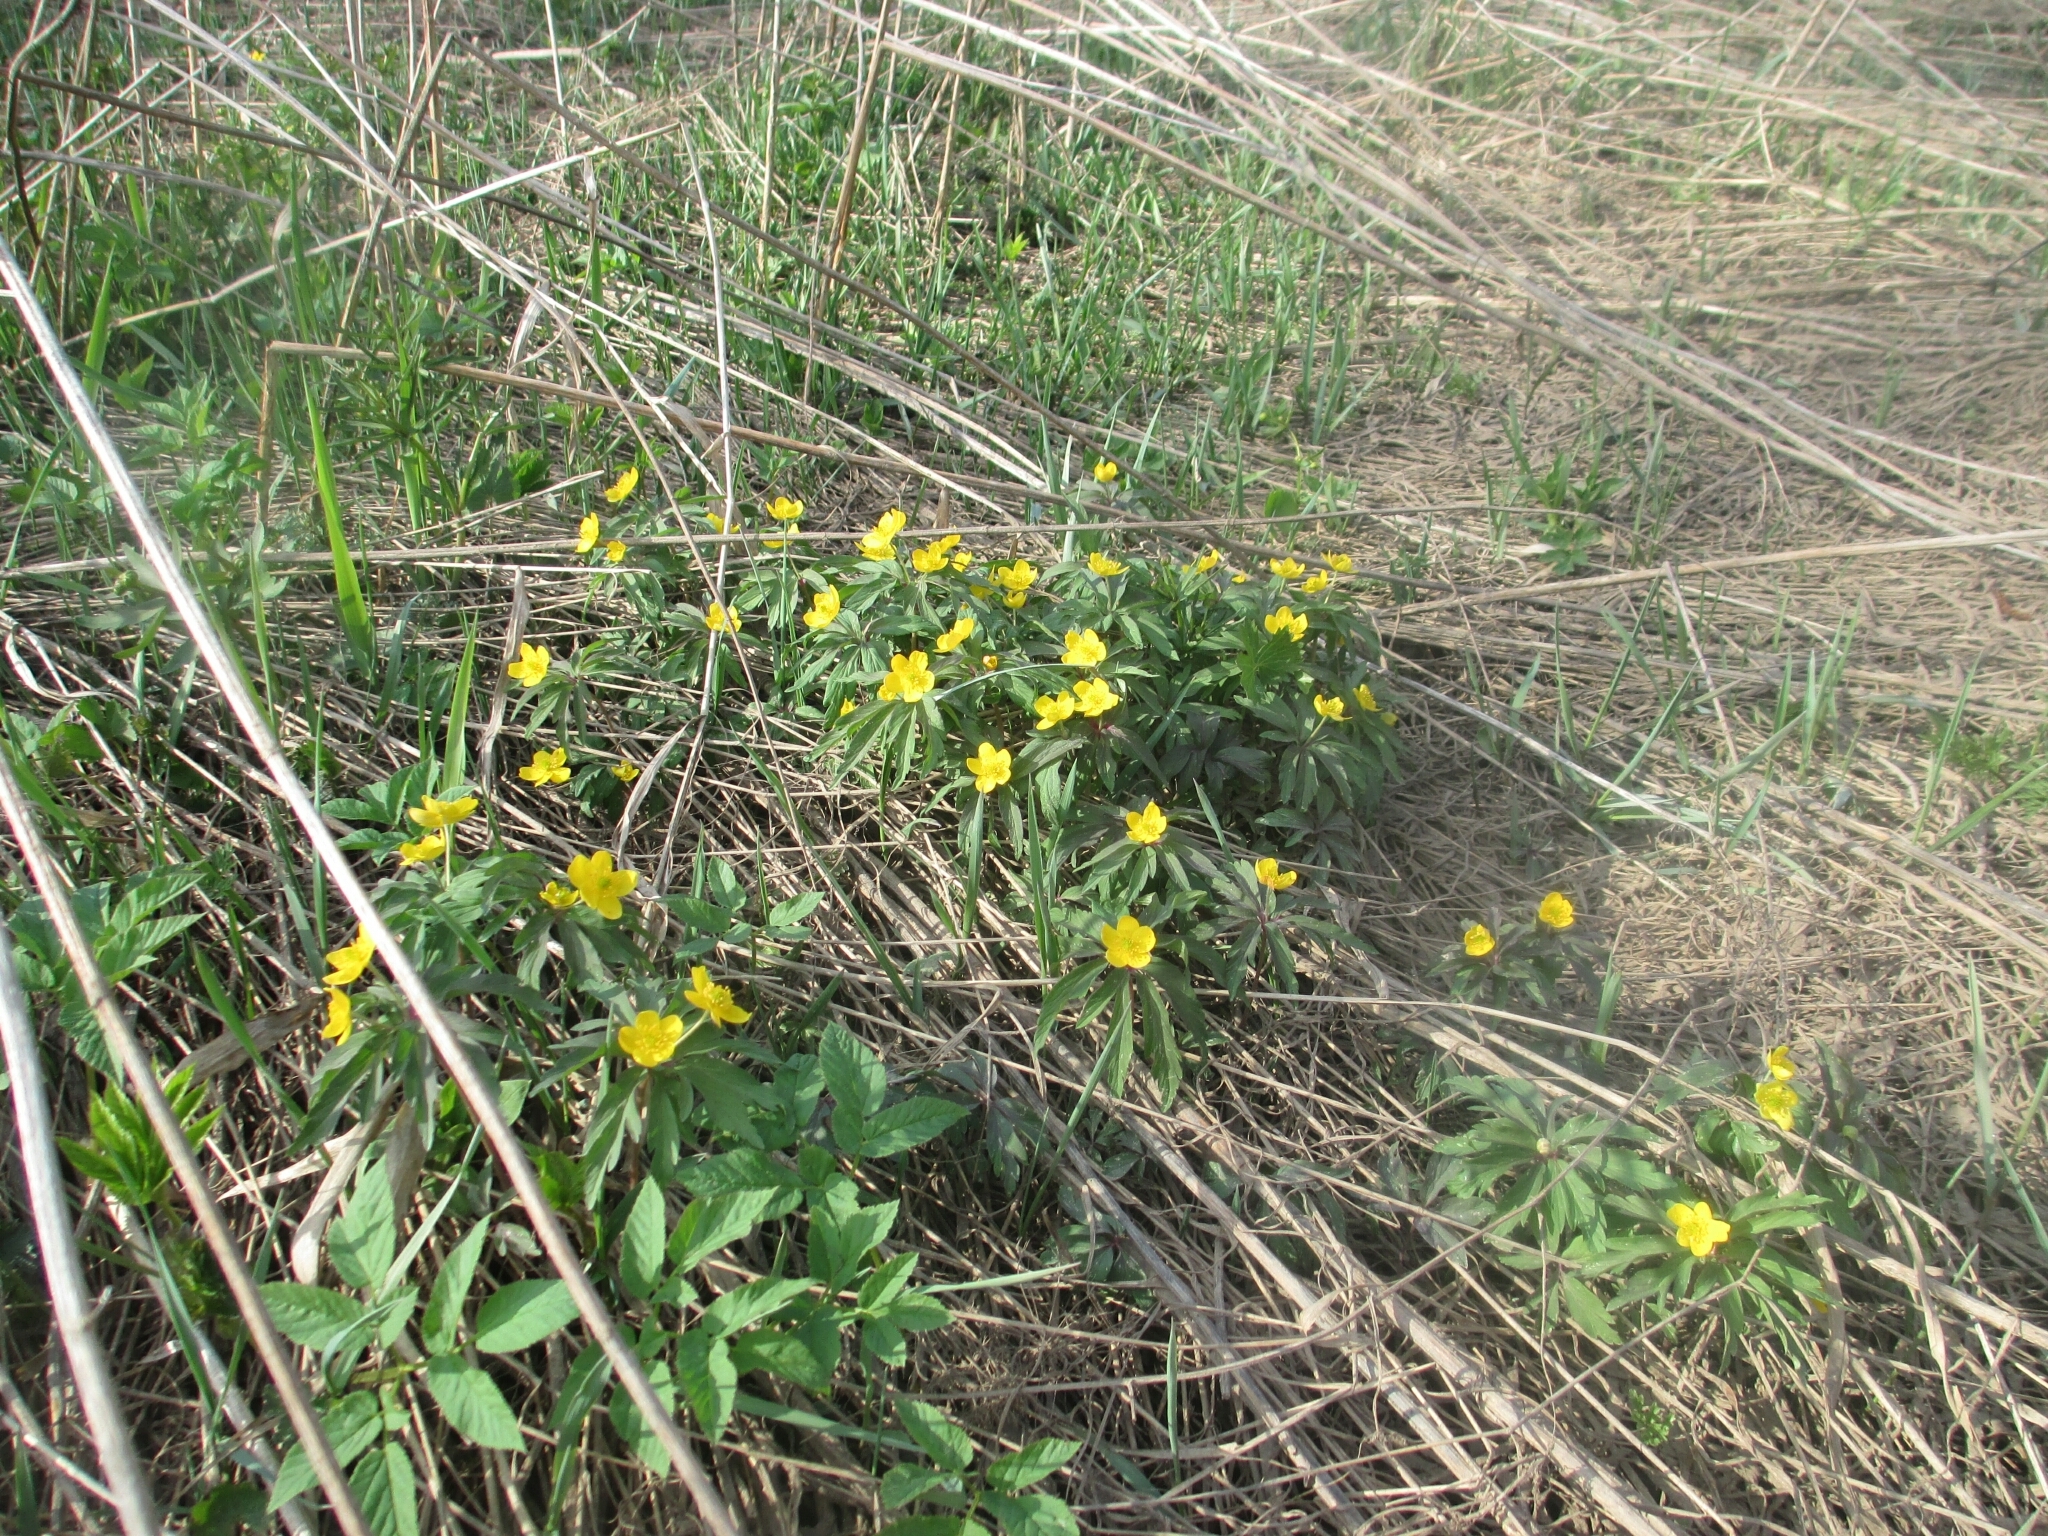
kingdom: Plantae
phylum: Tracheophyta
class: Magnoliopsida
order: Ranunculales
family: Ranunculaceae
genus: Anemone
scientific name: Anemone ranunculoides
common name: Yellow anemone
